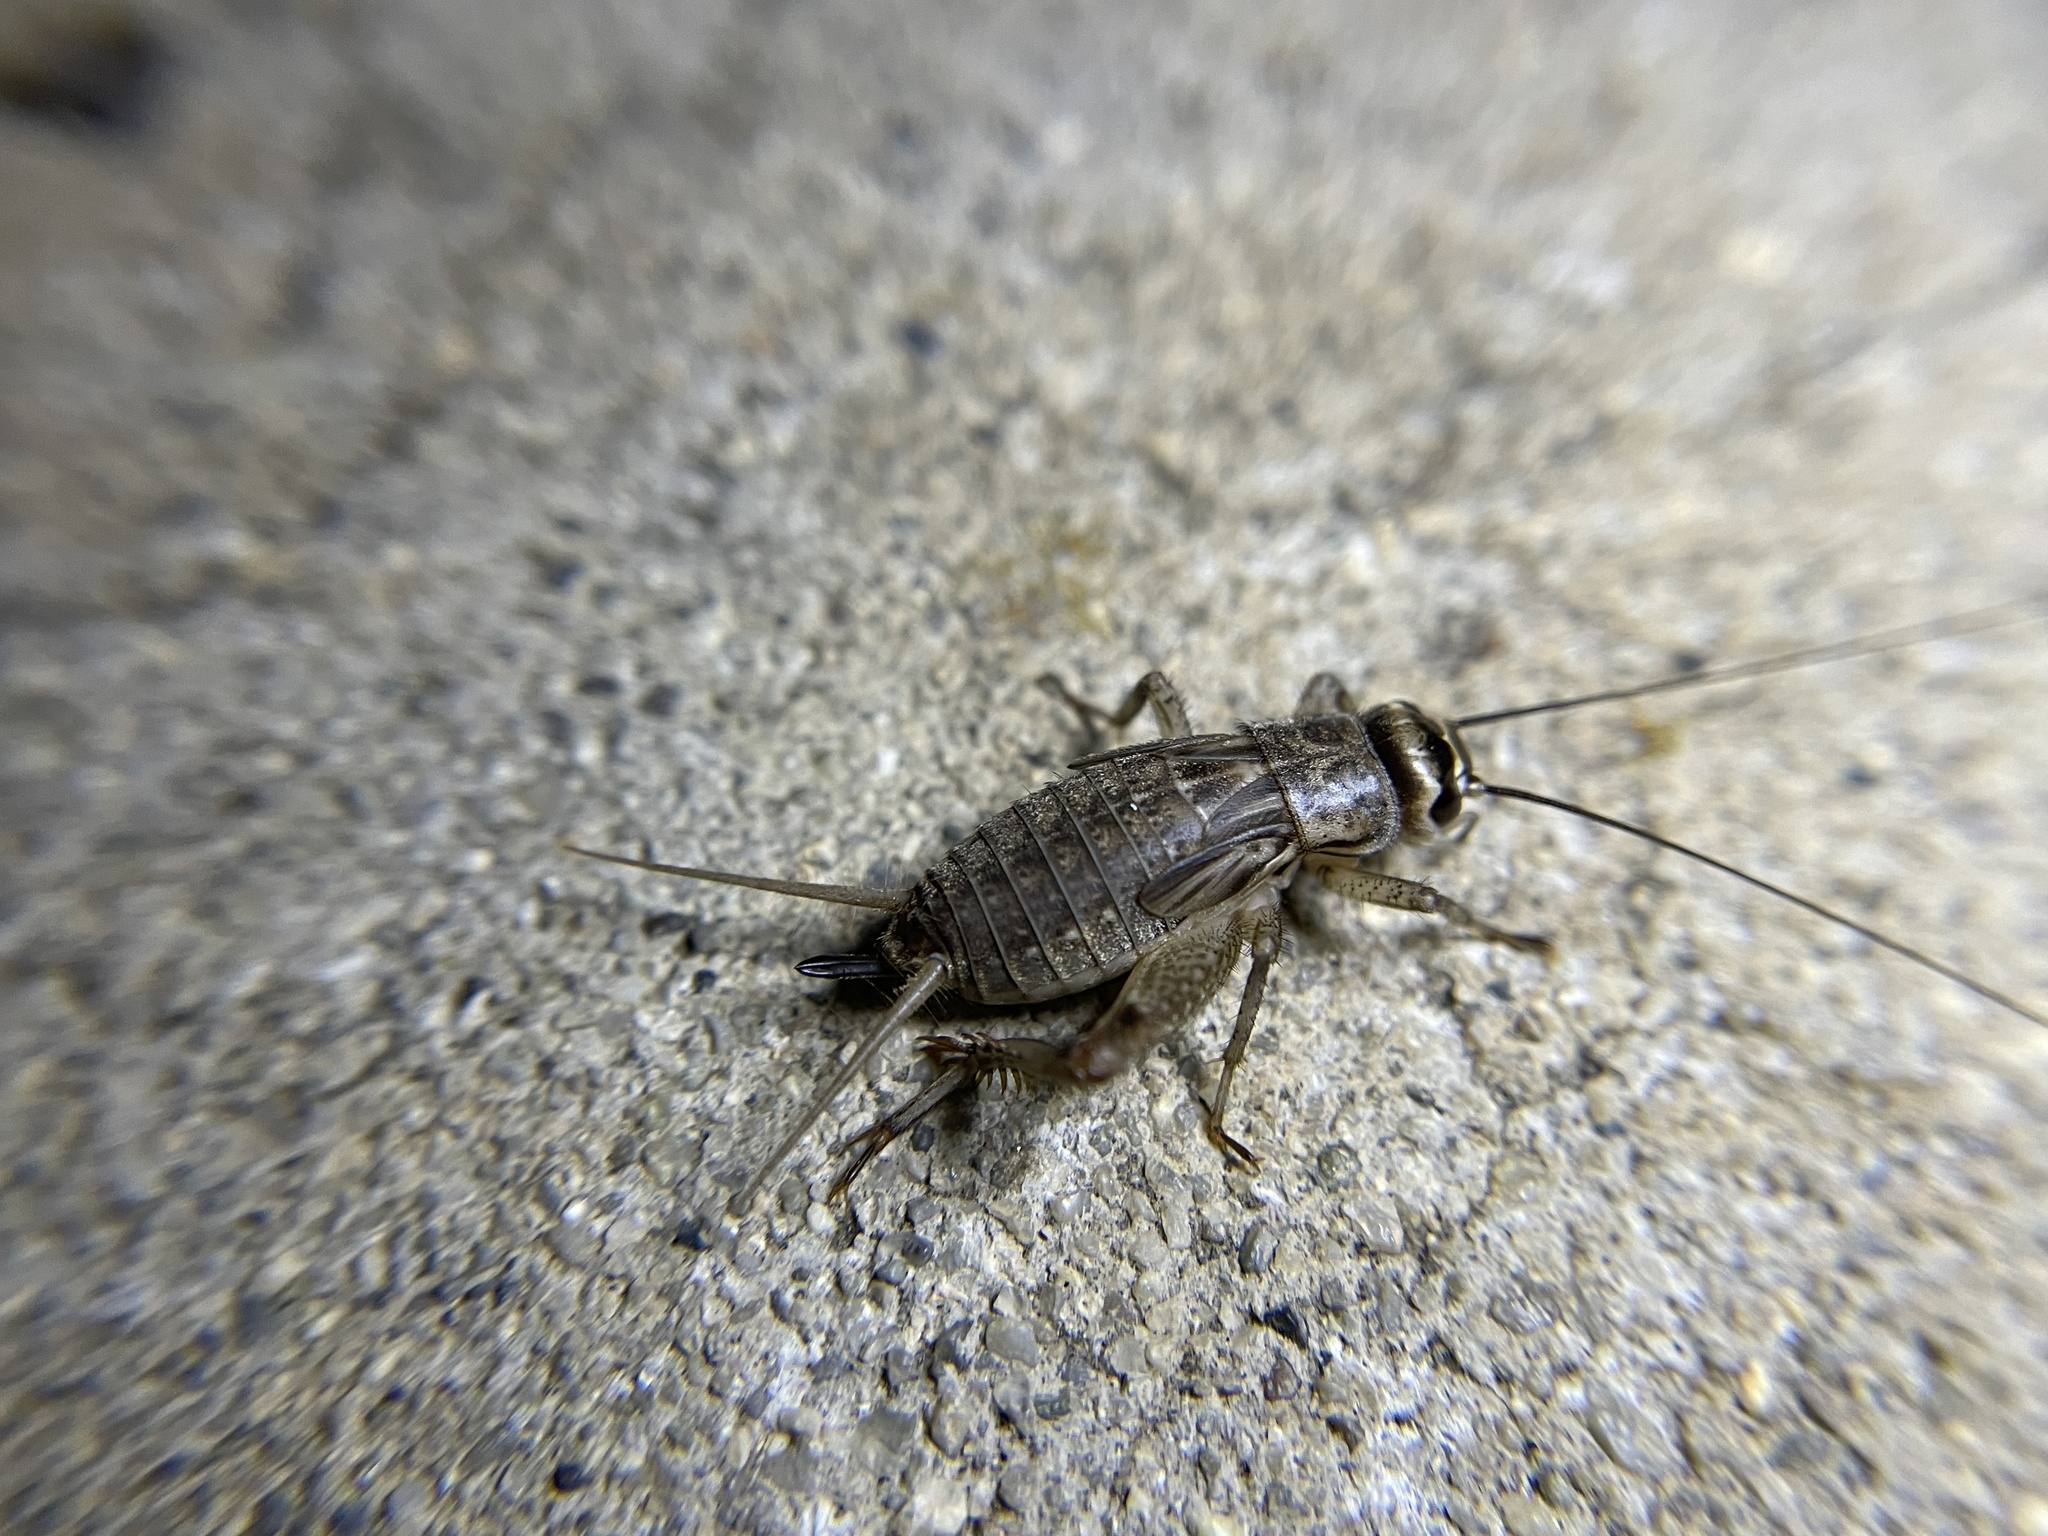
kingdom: Animalia
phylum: Arthropoda
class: Insecta
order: Orthoptera
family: Gryllidae
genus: Acheta
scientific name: Acheta domesticus
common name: House cricket
